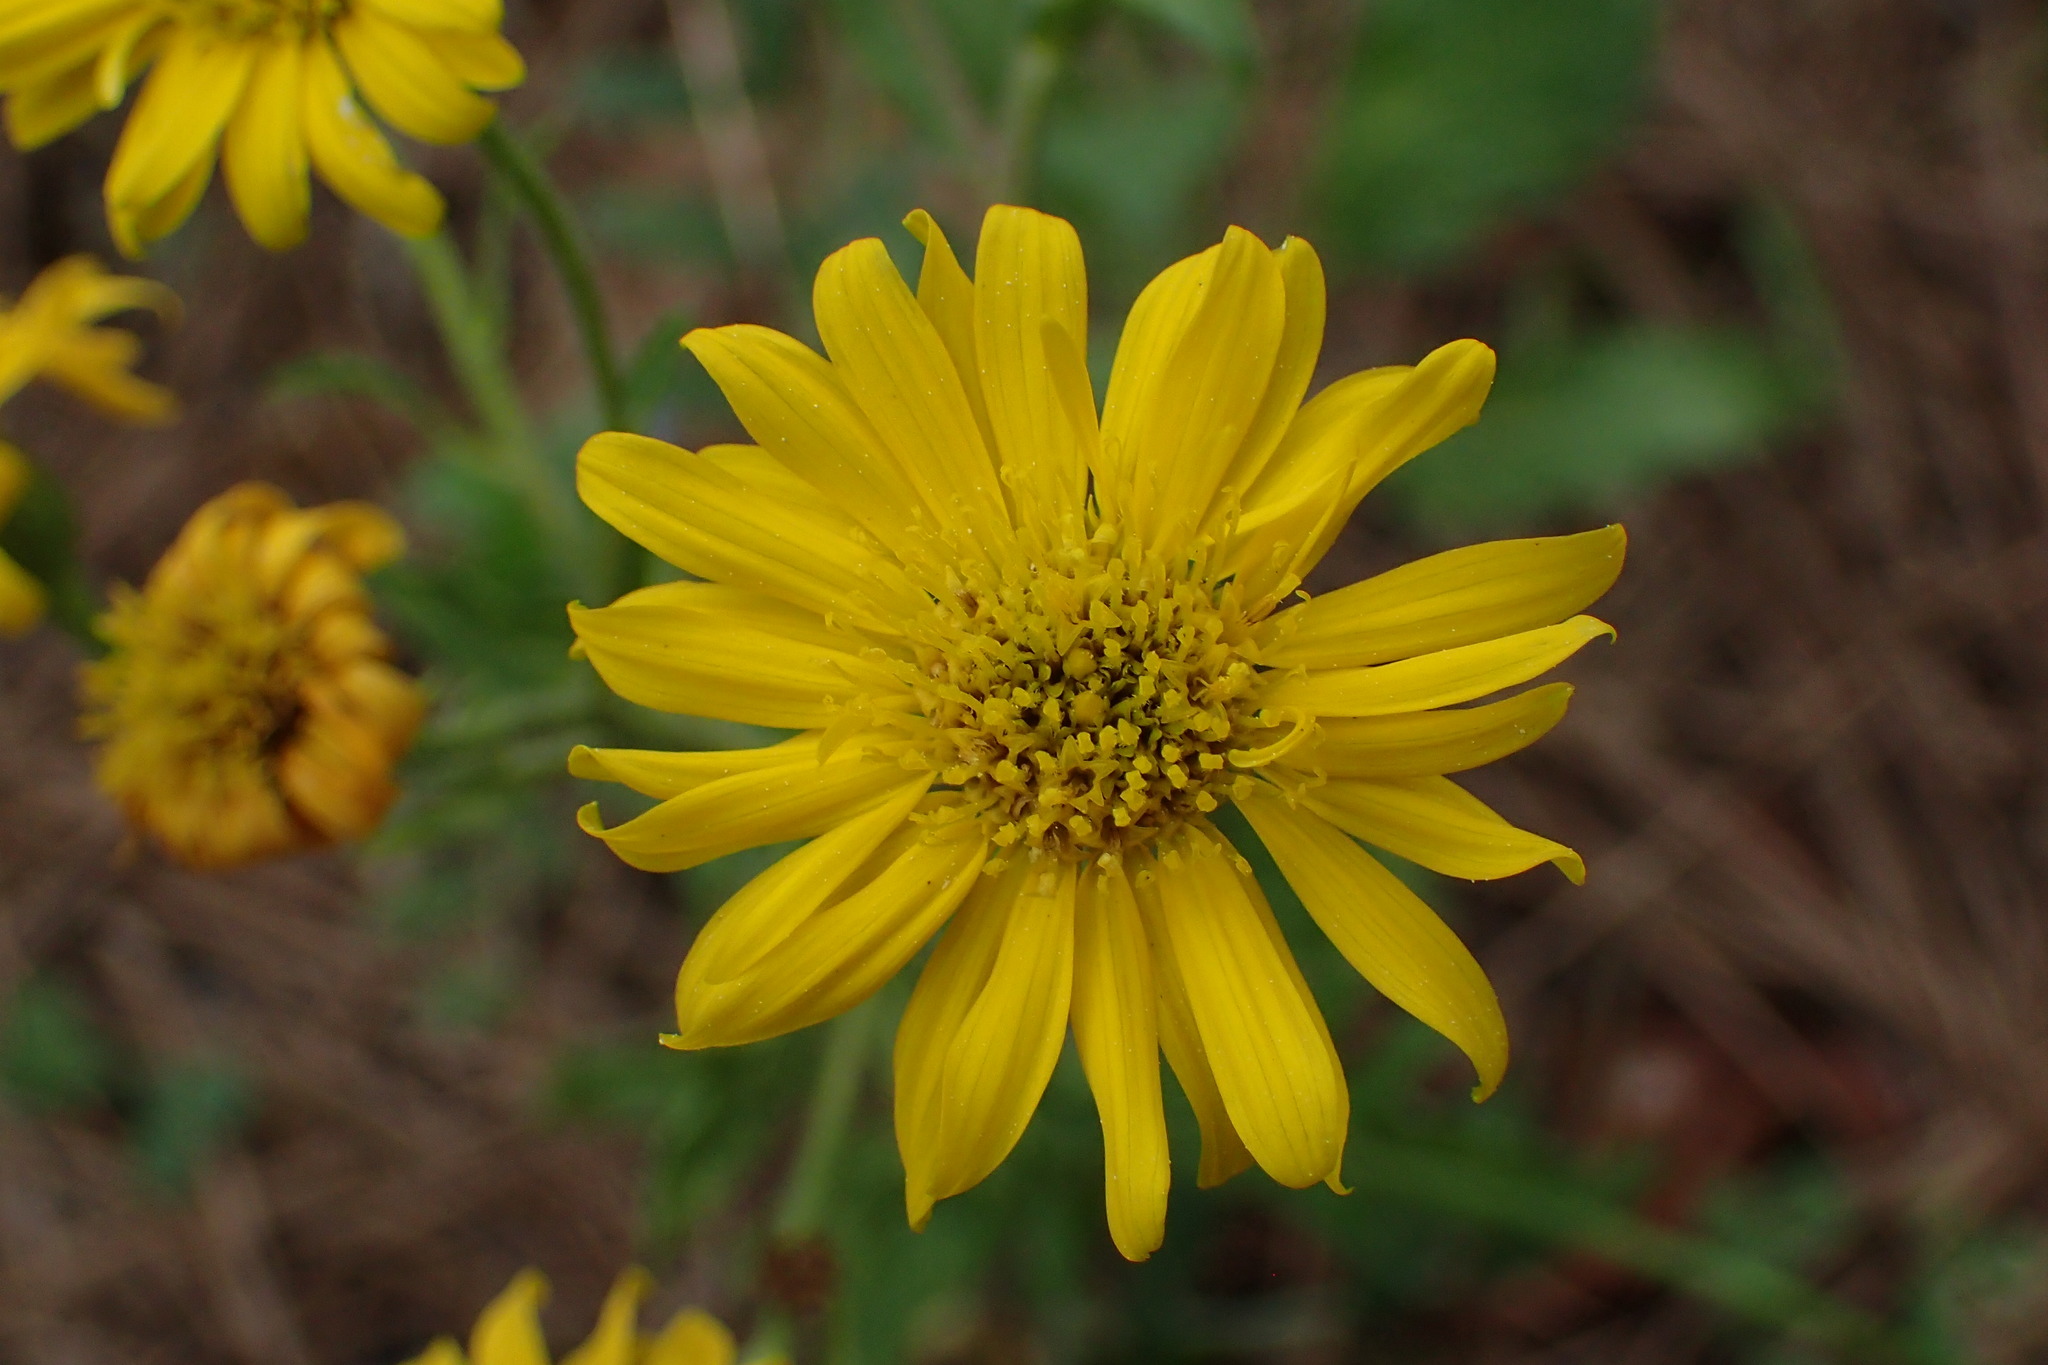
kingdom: Plantae
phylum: Tracheophyta
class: Magnoliopsida
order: Asterales
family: Asteraceae
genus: Heterotheca
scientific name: Heterotheca subaxillaris
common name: Camphorweed
